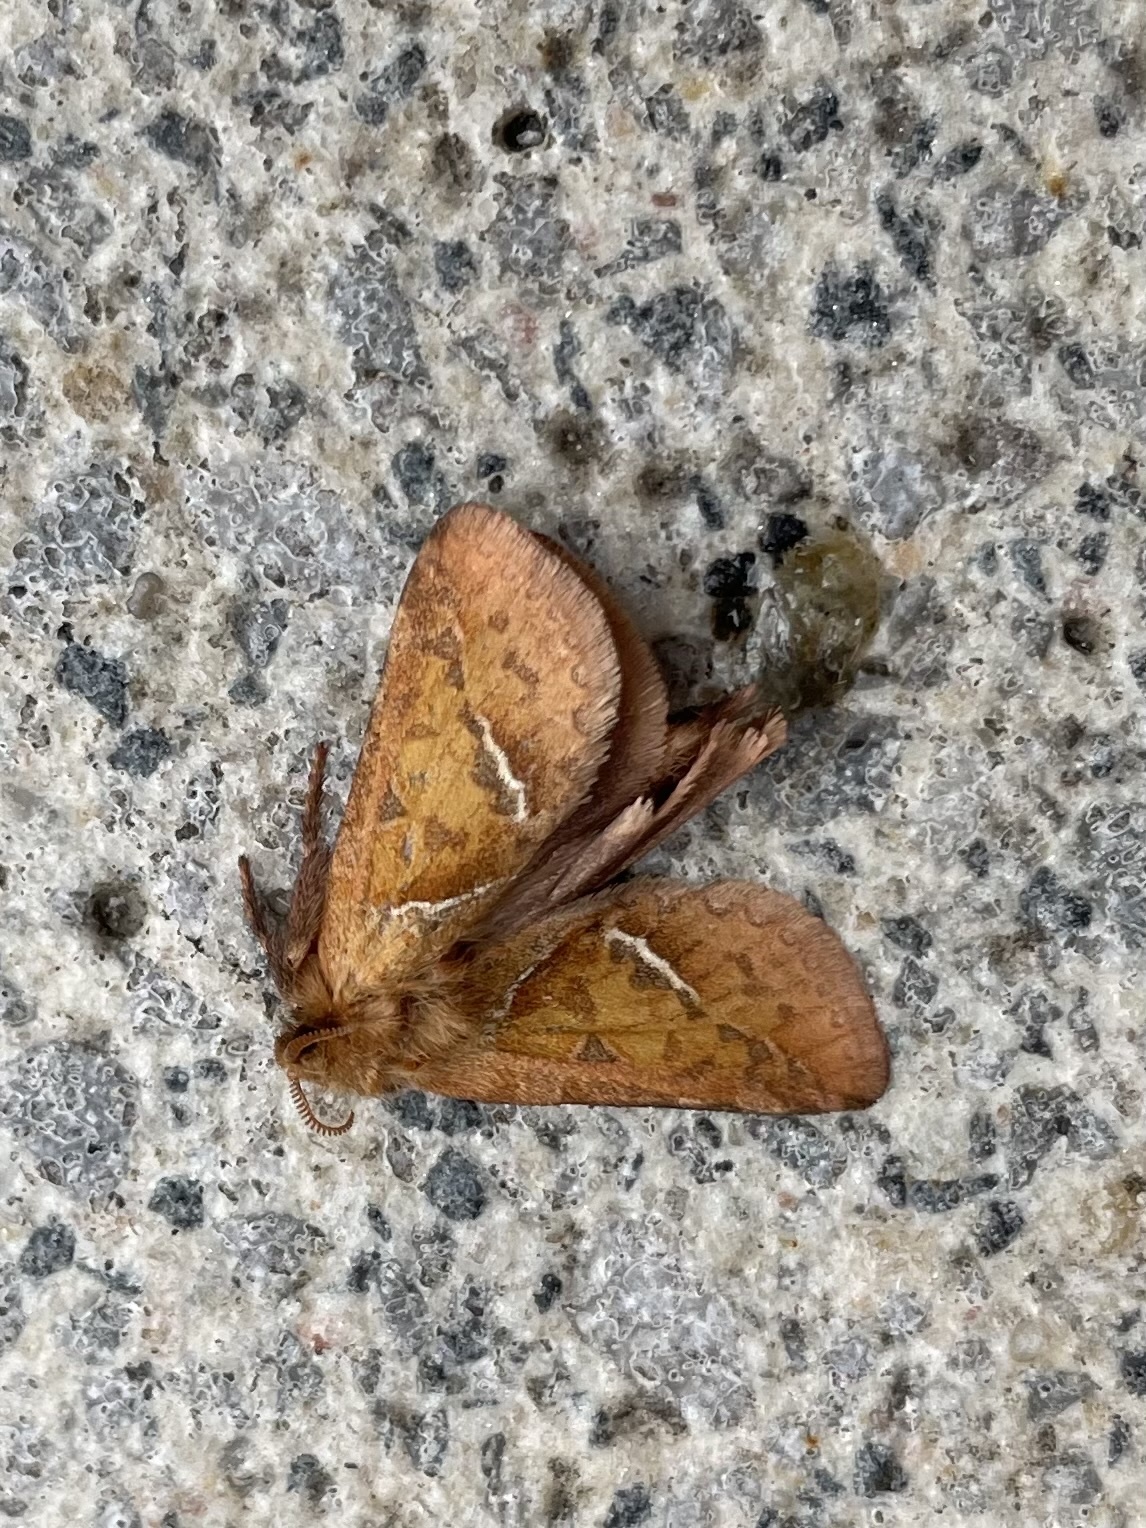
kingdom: Animalia
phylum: Arthropoda
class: Insecta
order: Lepidoptera
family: Hepialidae
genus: Triodia
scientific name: Triodia sylvina
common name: Orange swift
